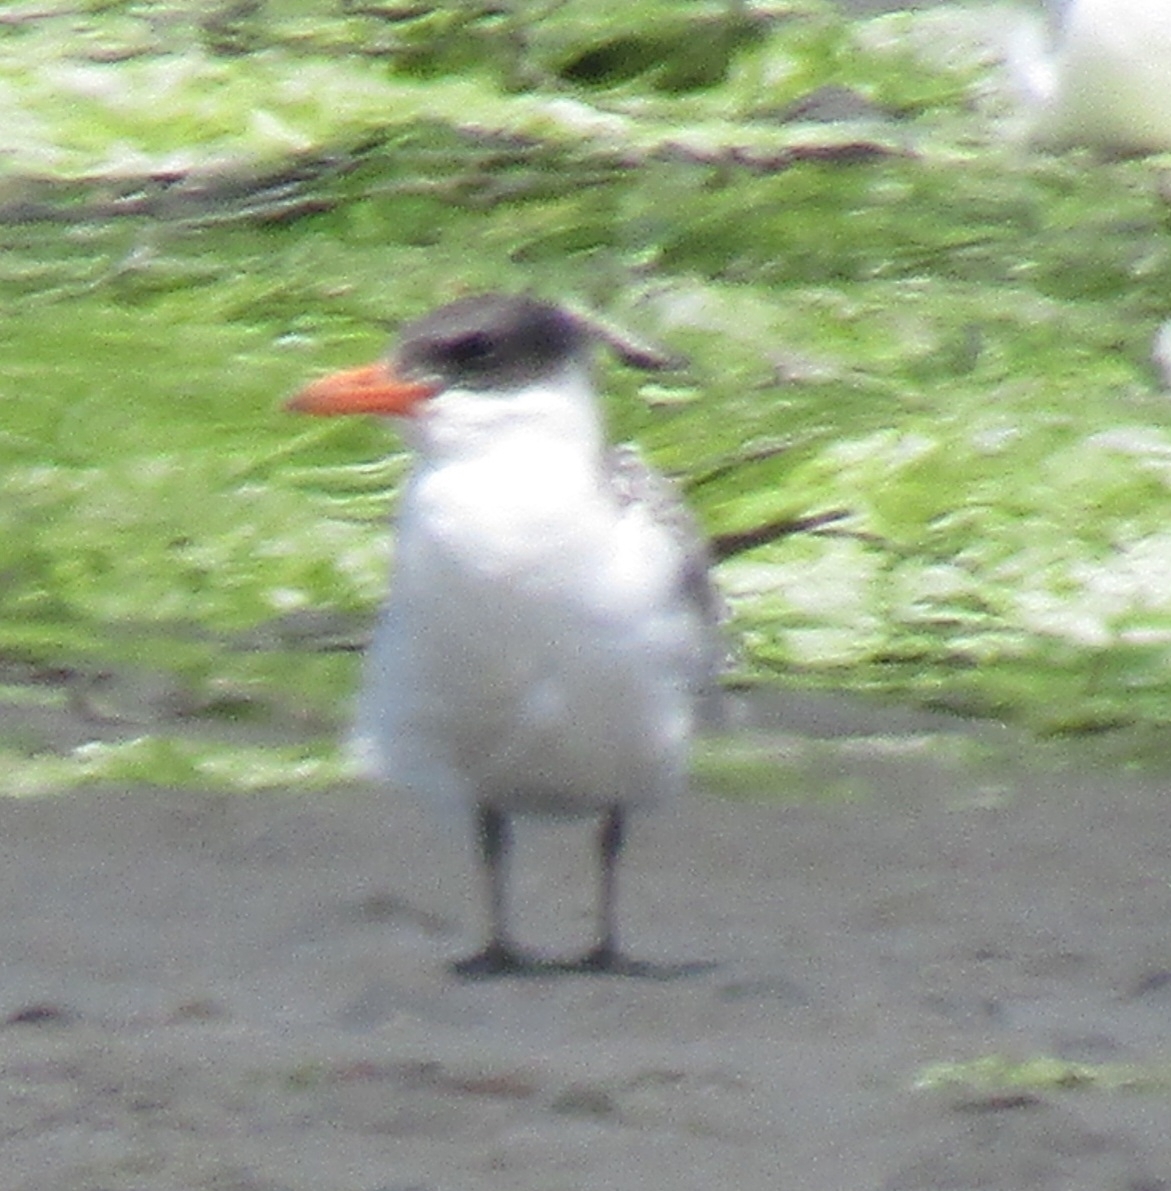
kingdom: Animalia
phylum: Chordata
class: Aves
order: Charadriiformes
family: Laridae
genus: Hydroprogne
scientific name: Hydroprogne caspia
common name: Caspian tern
